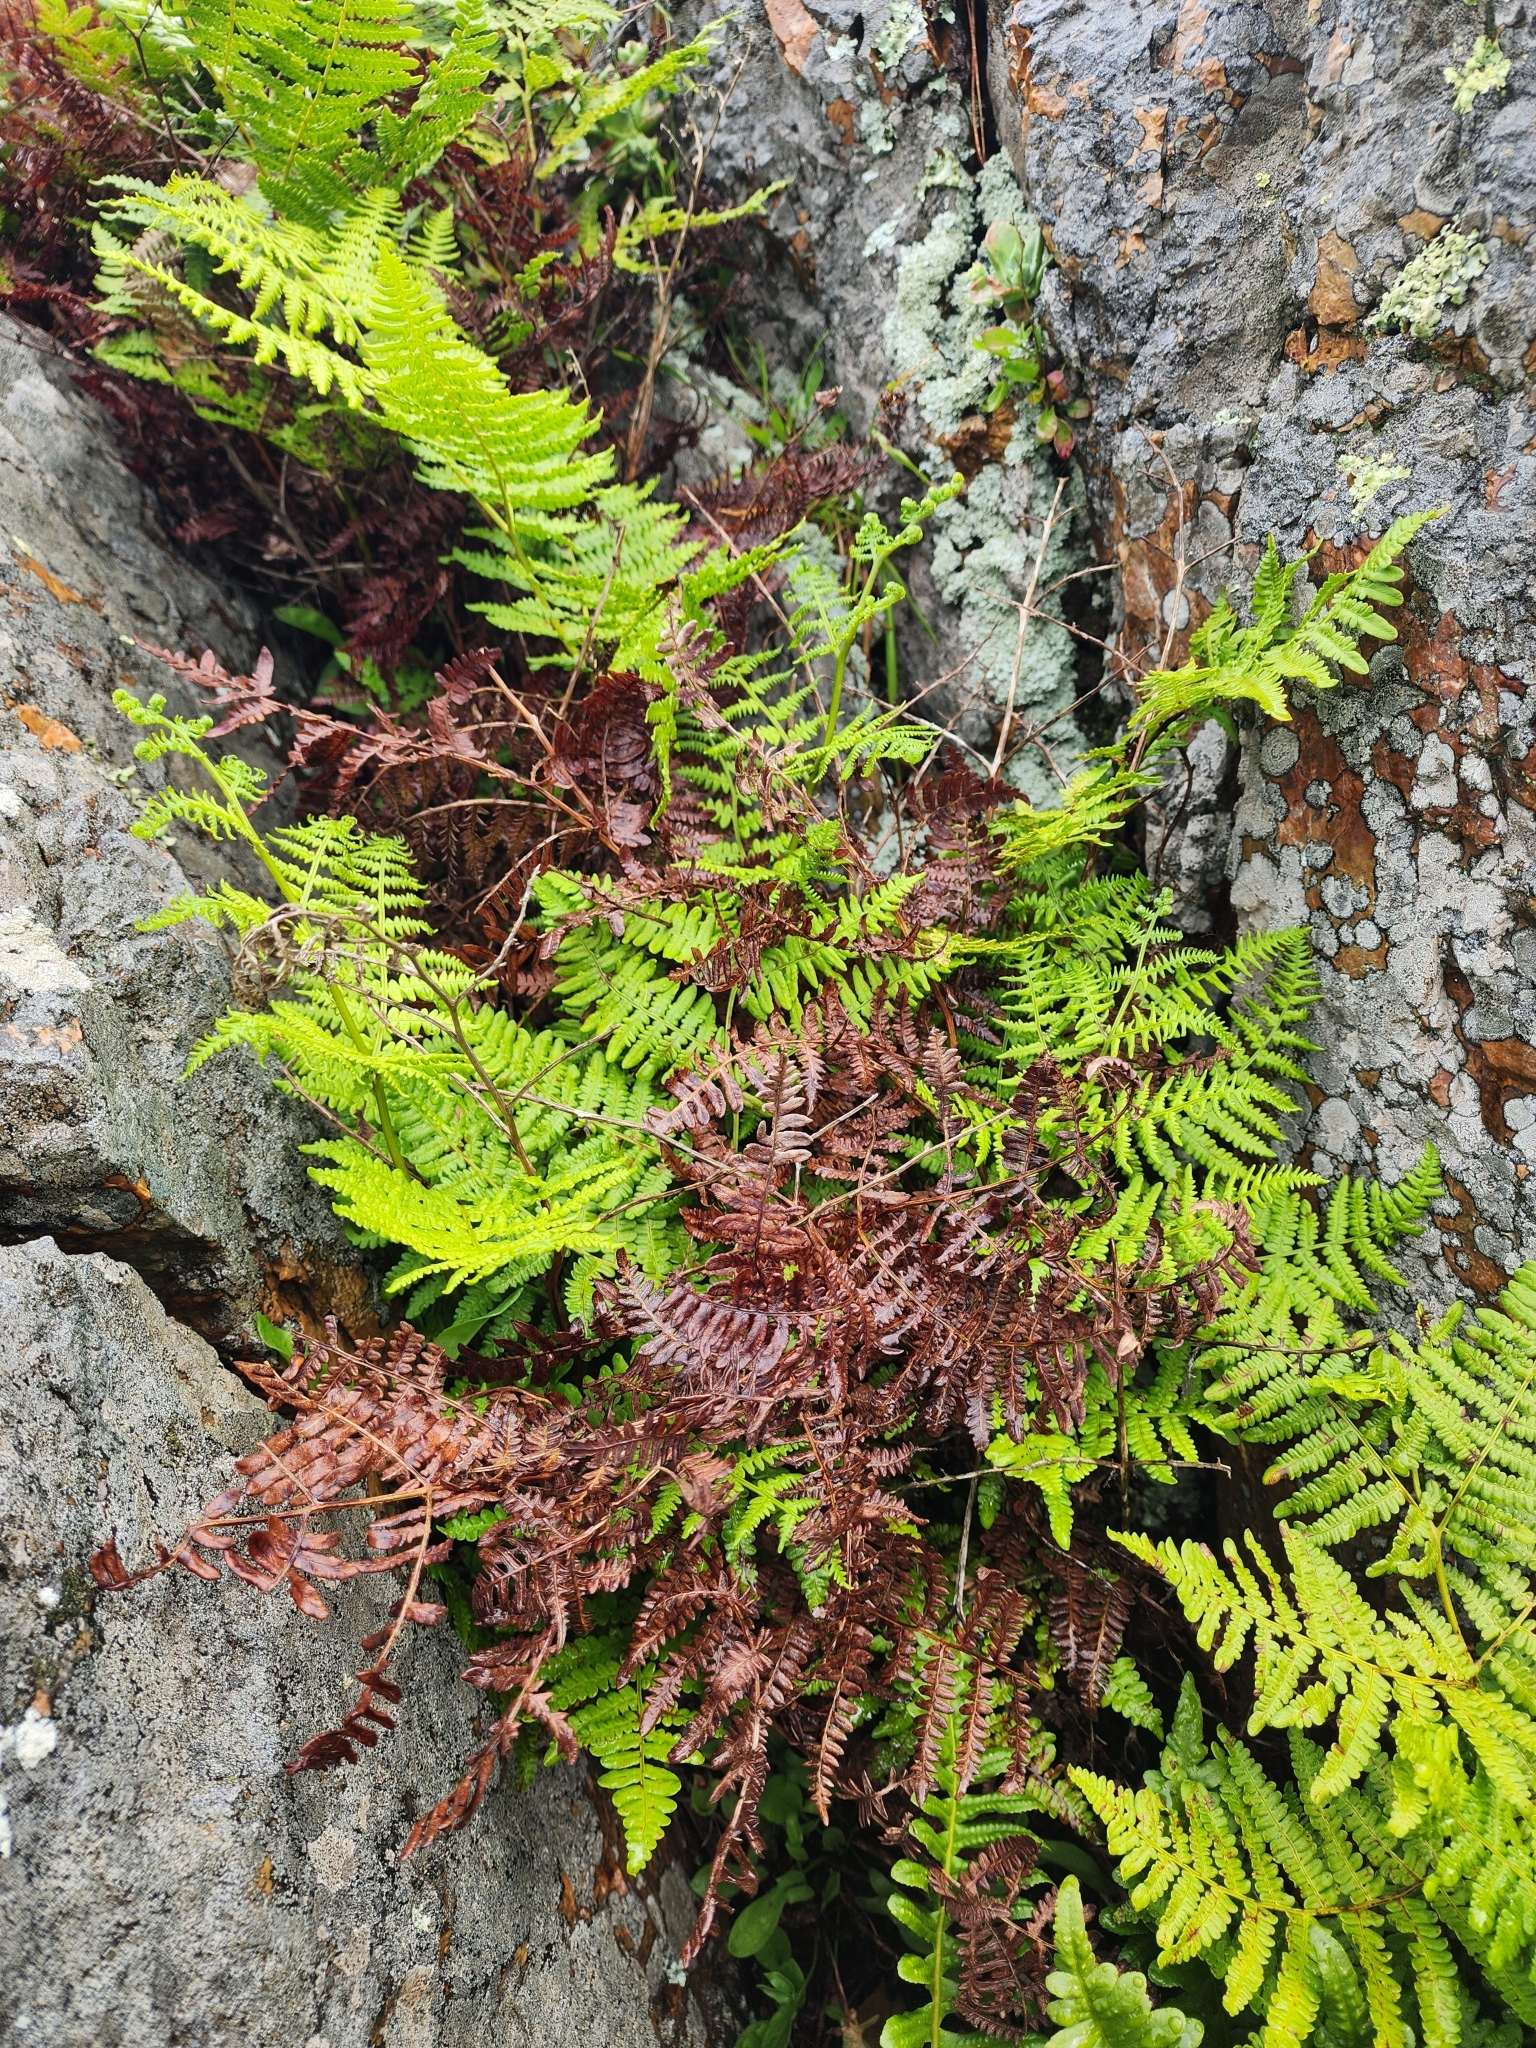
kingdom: Plantae
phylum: Tracheophyta
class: Polypodiopsida
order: Polypodiales
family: Dennstaedtiaceae
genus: Pteridium
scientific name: Pteridium aquilinum
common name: Bracken
